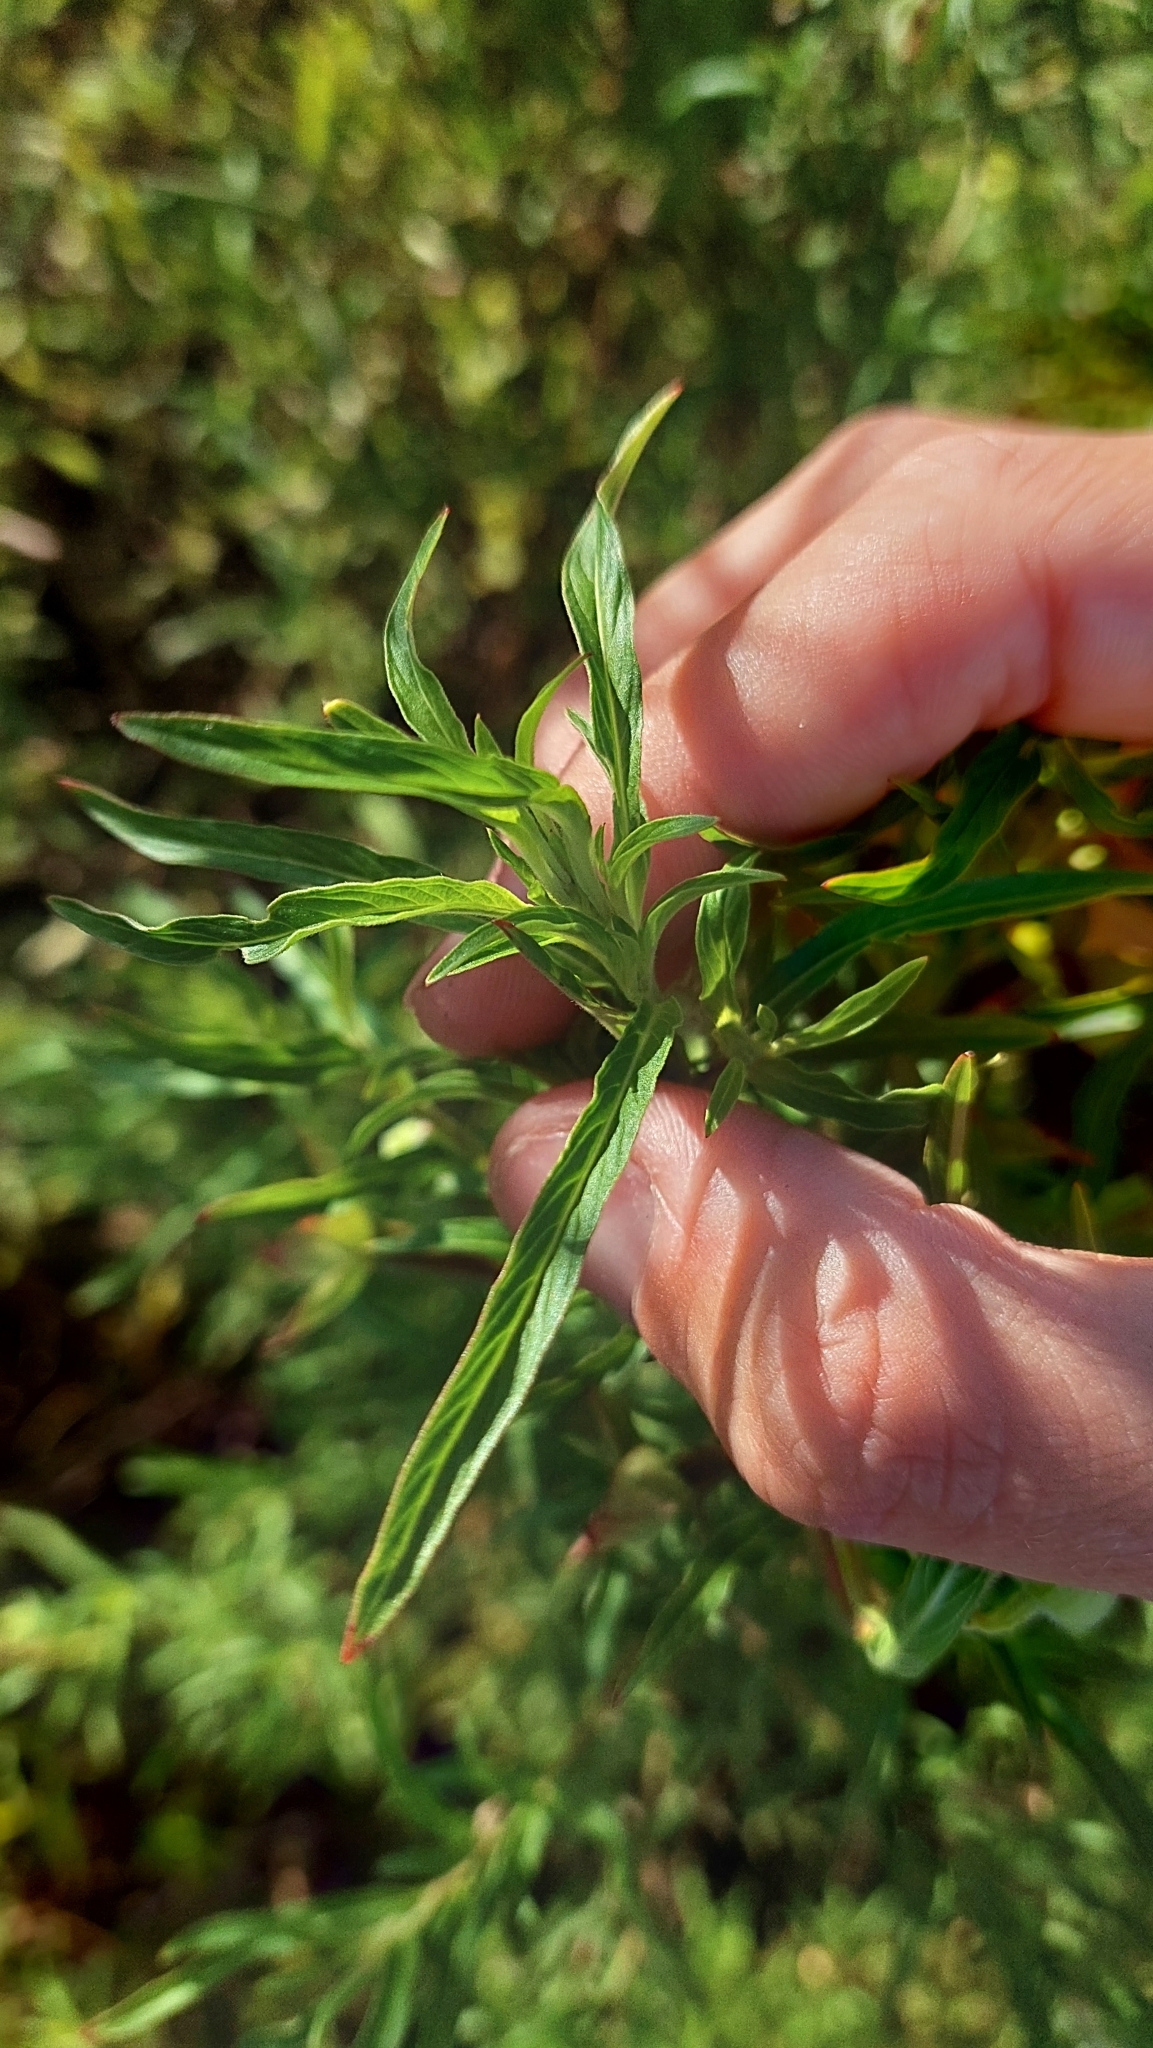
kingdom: Plantae
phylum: Tracheophyta
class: Magnoliopsida
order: Myrtales
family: Onagraceae
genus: Ludwigia
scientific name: Ludwigia bonariensis
